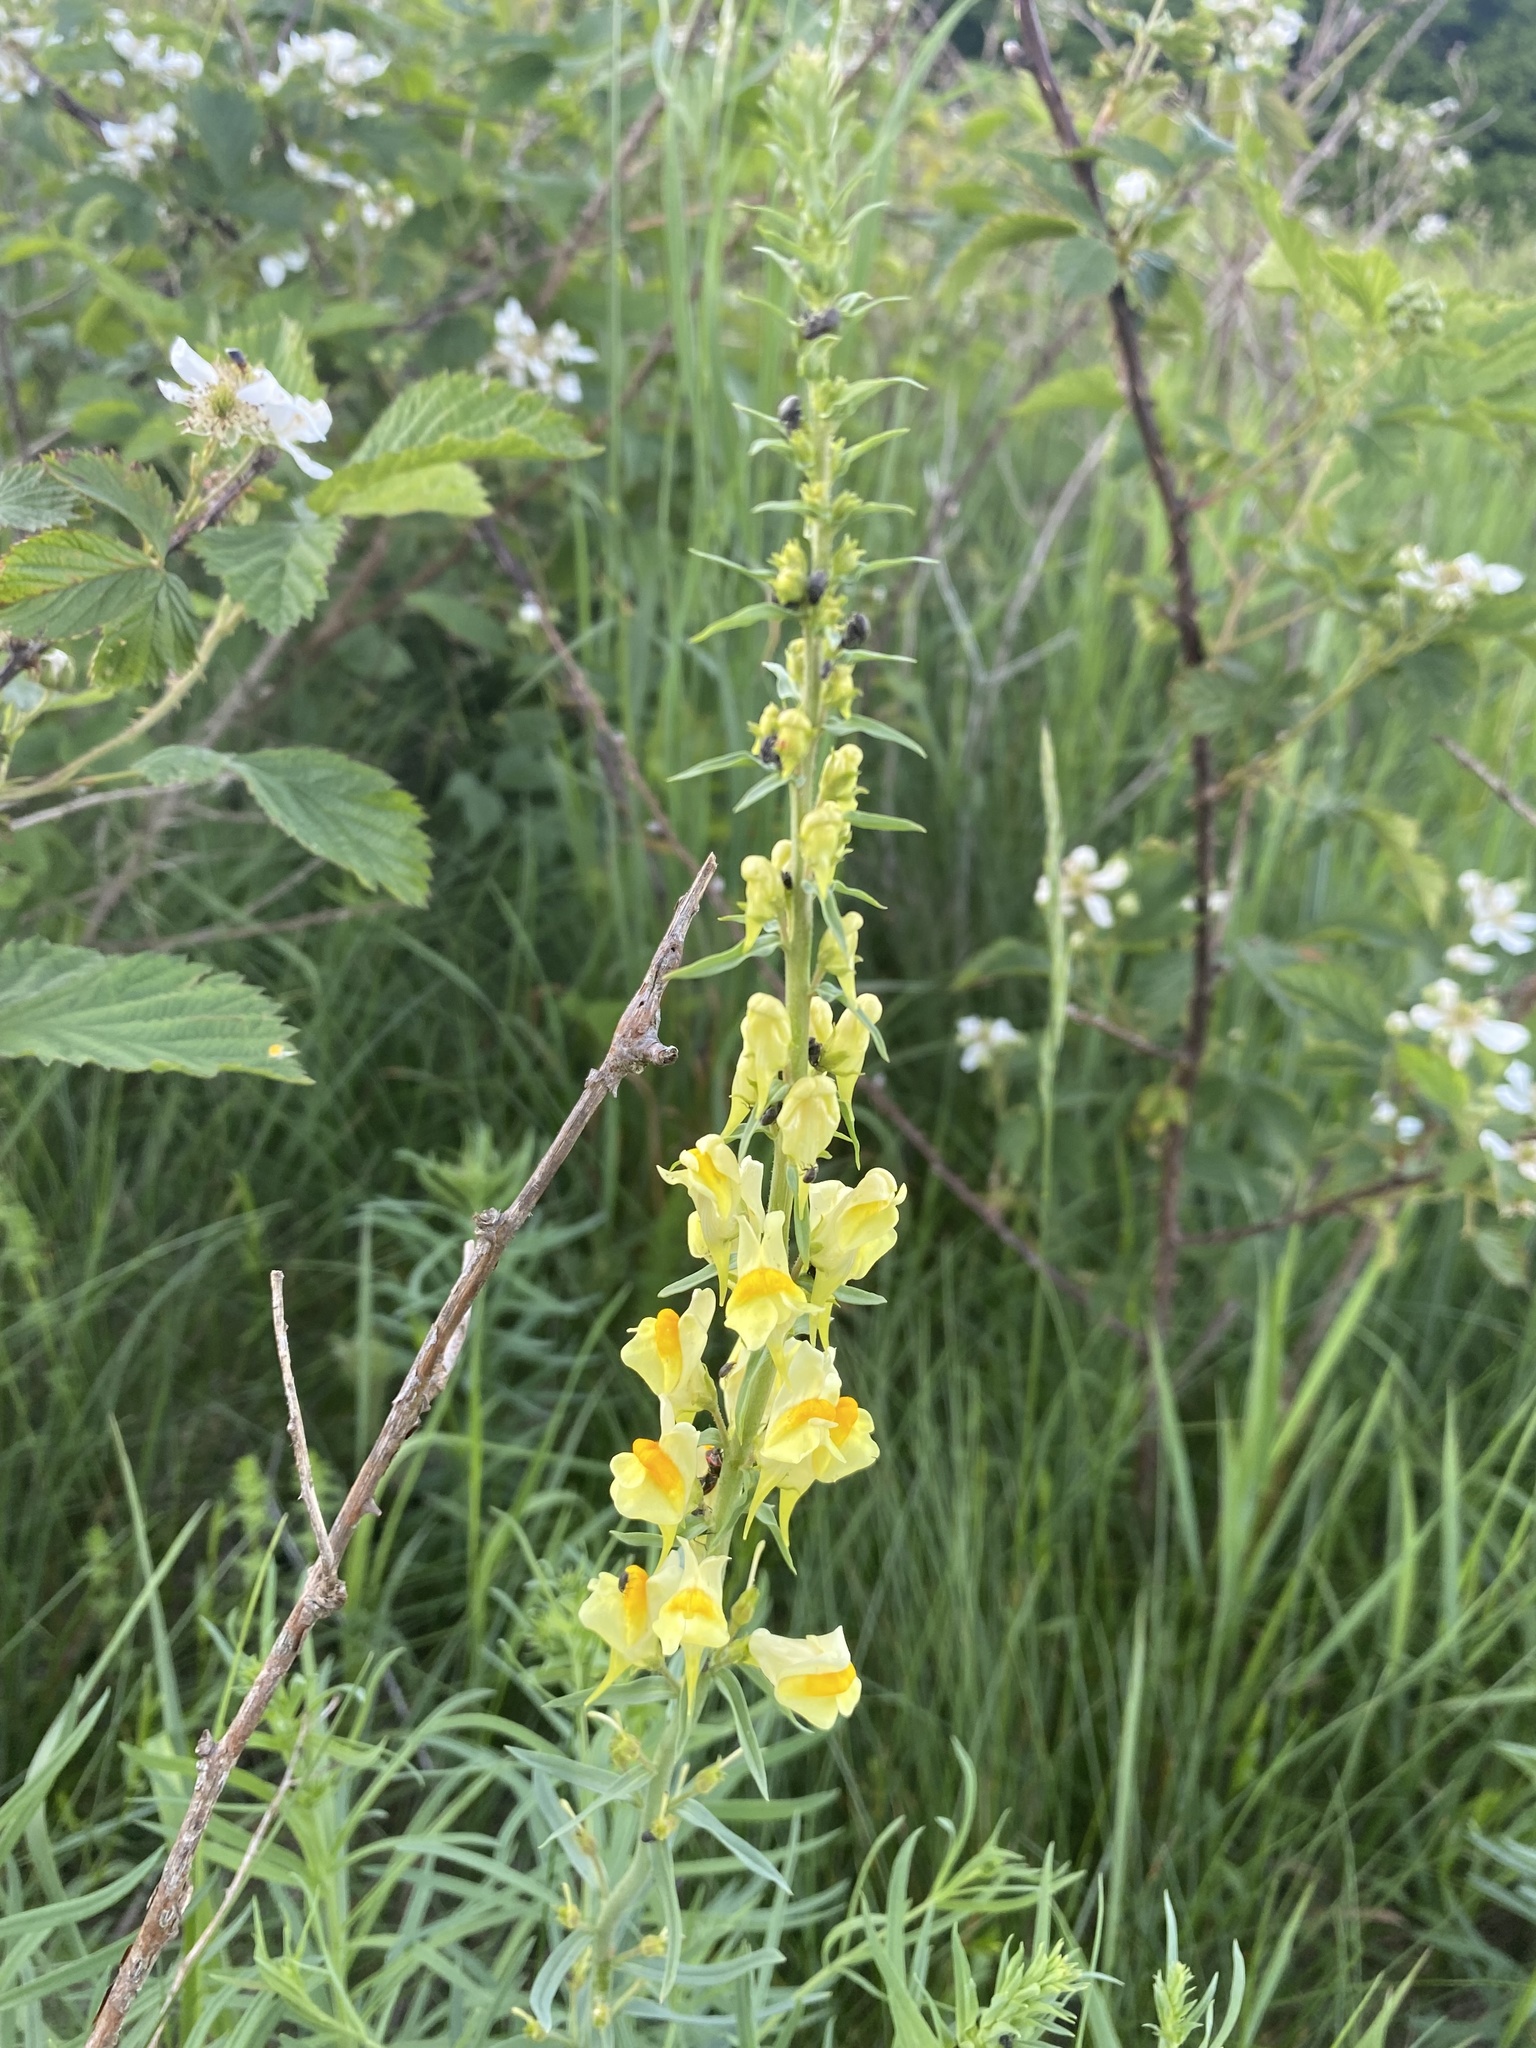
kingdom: Plantae
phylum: Tracheophyta
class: Magnoliopsida
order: Lamiales
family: Plantaginaceae
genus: Linaria
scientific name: Linaria vulgaris
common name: Butter and eggs
